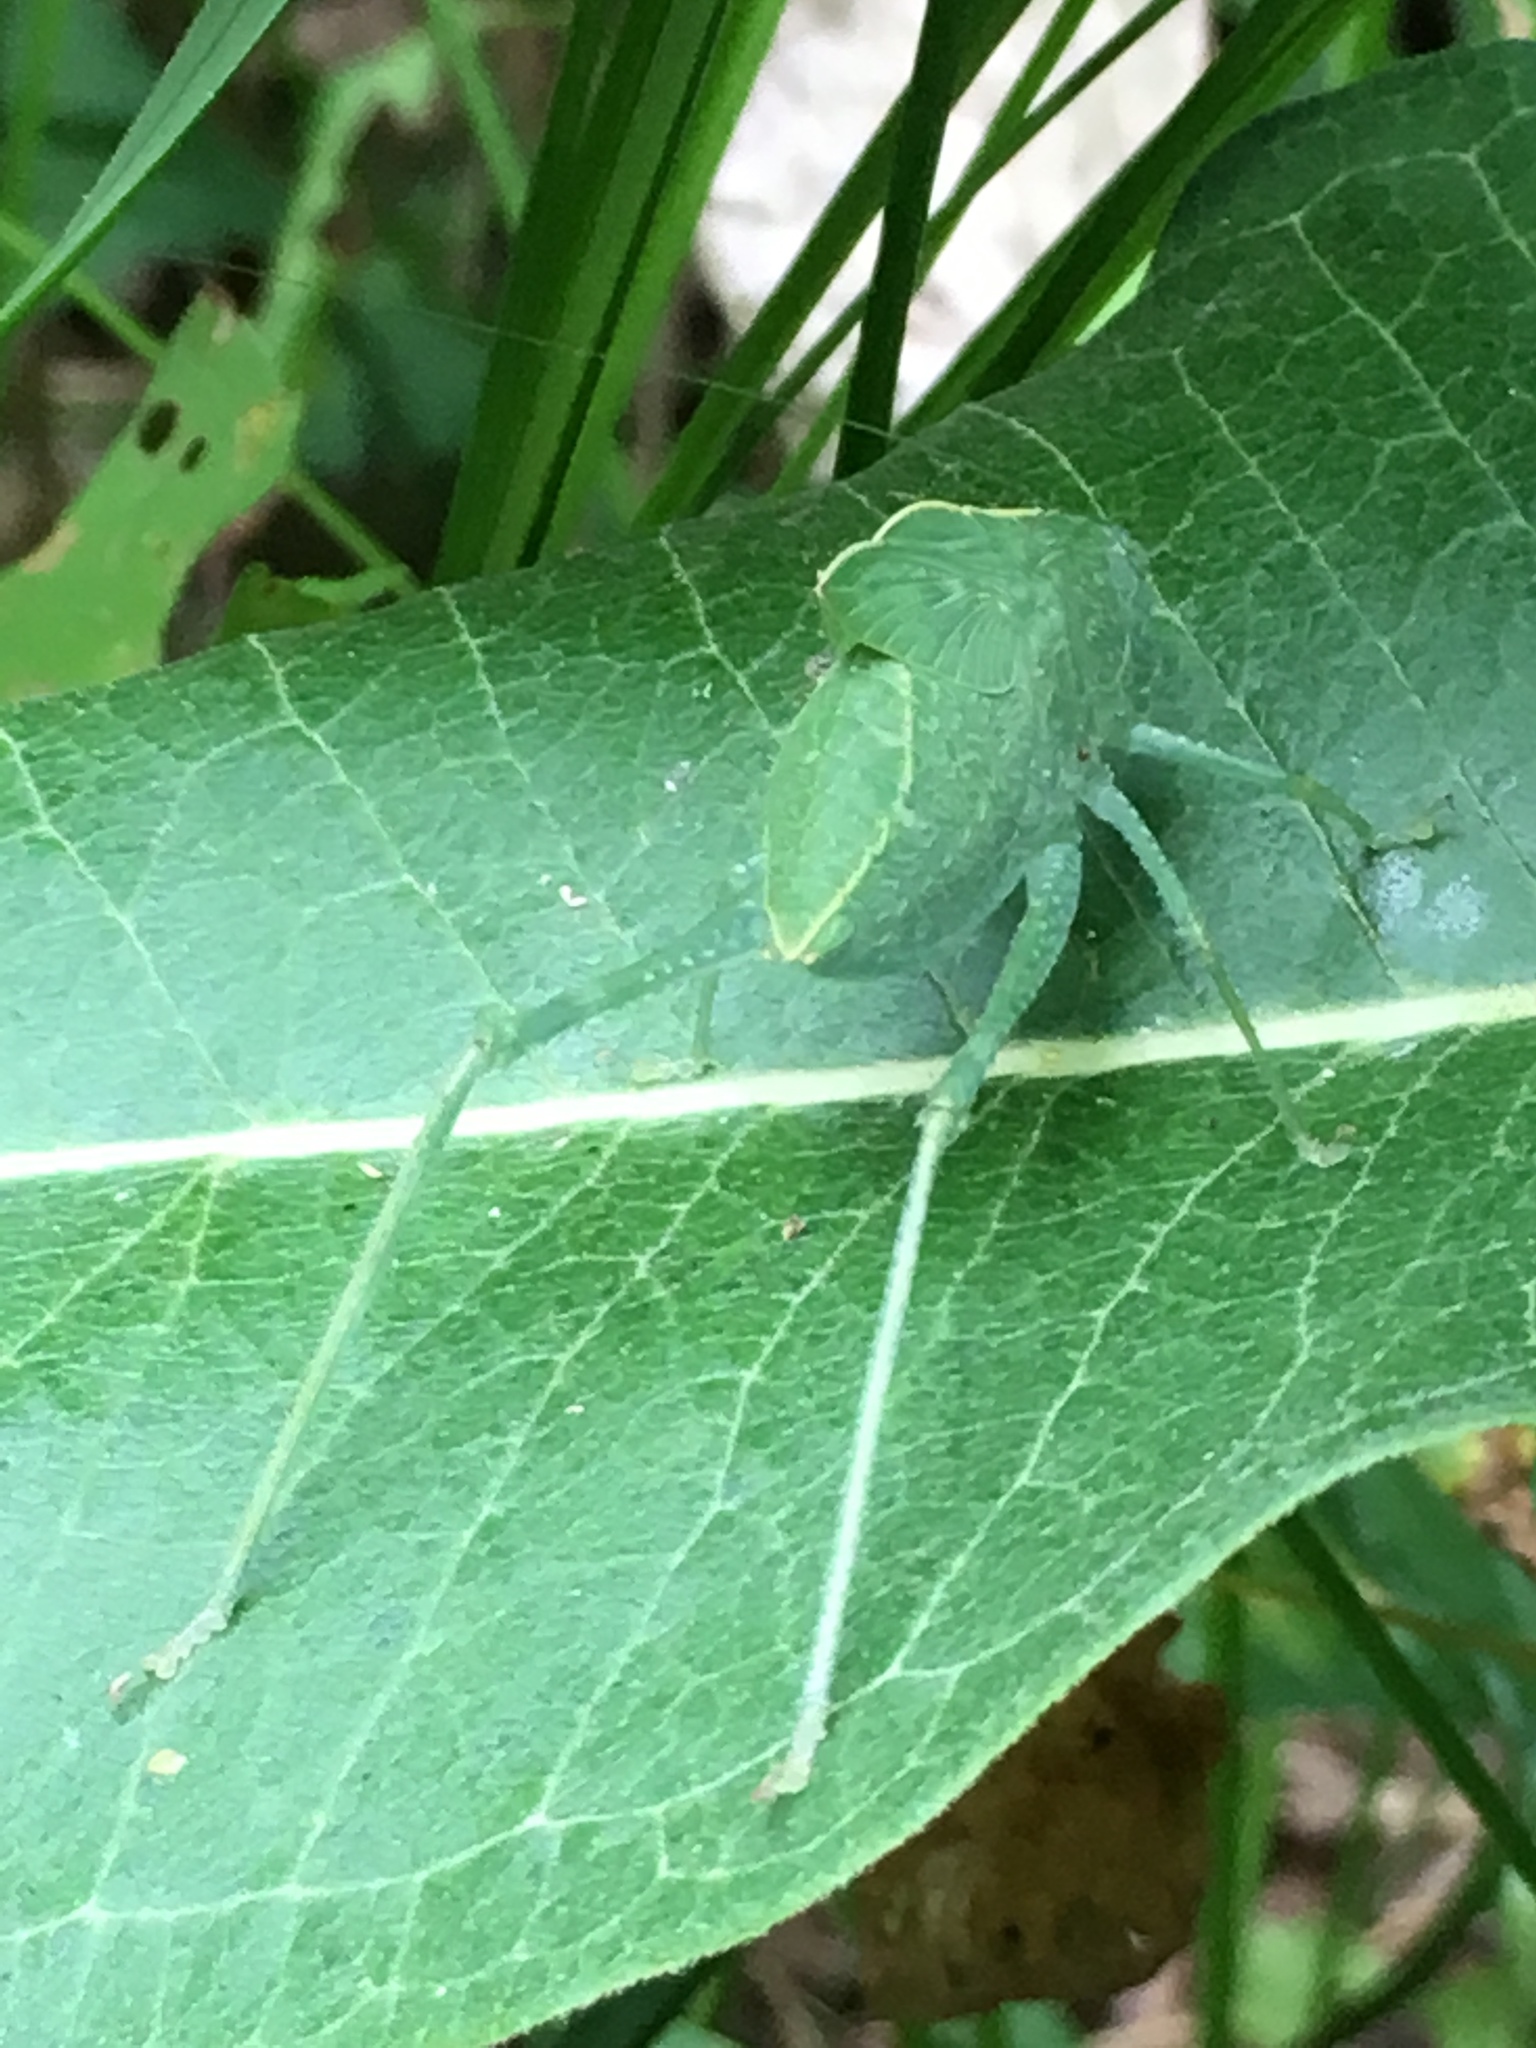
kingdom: Animalia
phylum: Arthropoda
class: Insecta
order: Orthoptera
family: Tettigoniidae
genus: Microcentrum
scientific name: Microcentrum rhombifolium
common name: Broad-winged katydid
